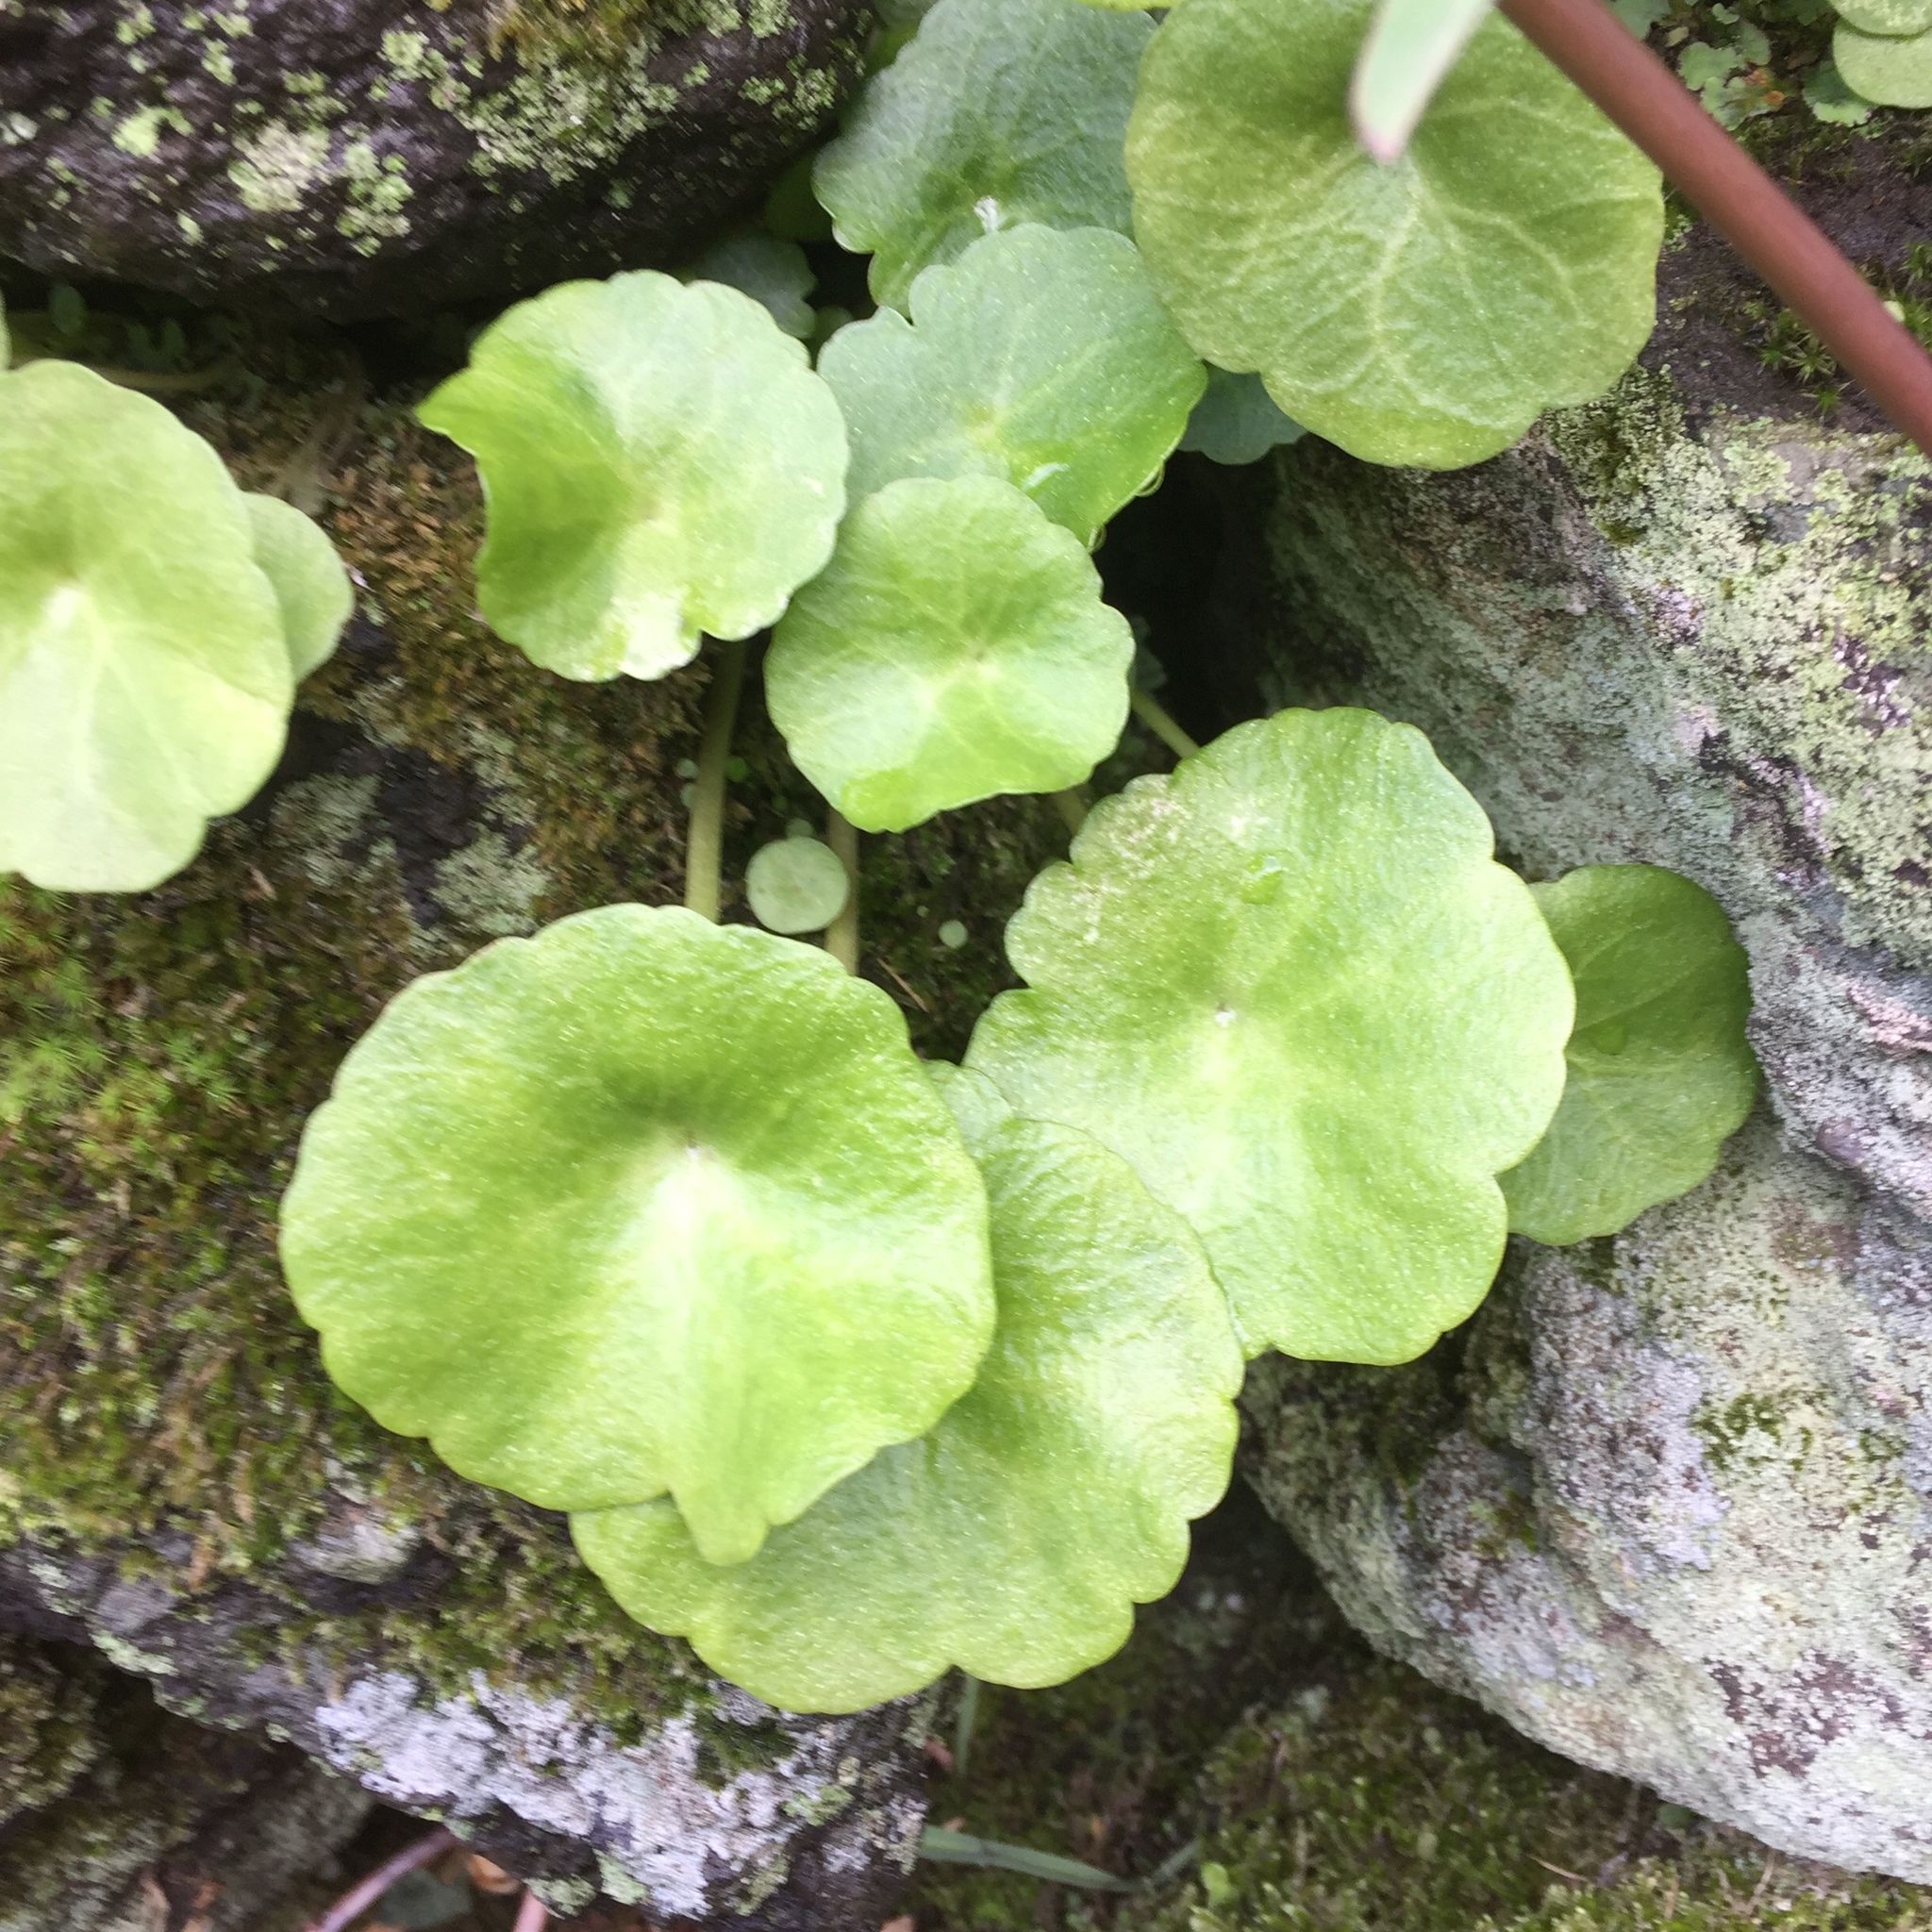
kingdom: Plantae
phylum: Tracheophyta
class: Magnoliopsida
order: Saxifragales
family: Crassulaceae
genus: Umbilicus
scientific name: Umbilicus rupestris
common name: Navelwort
